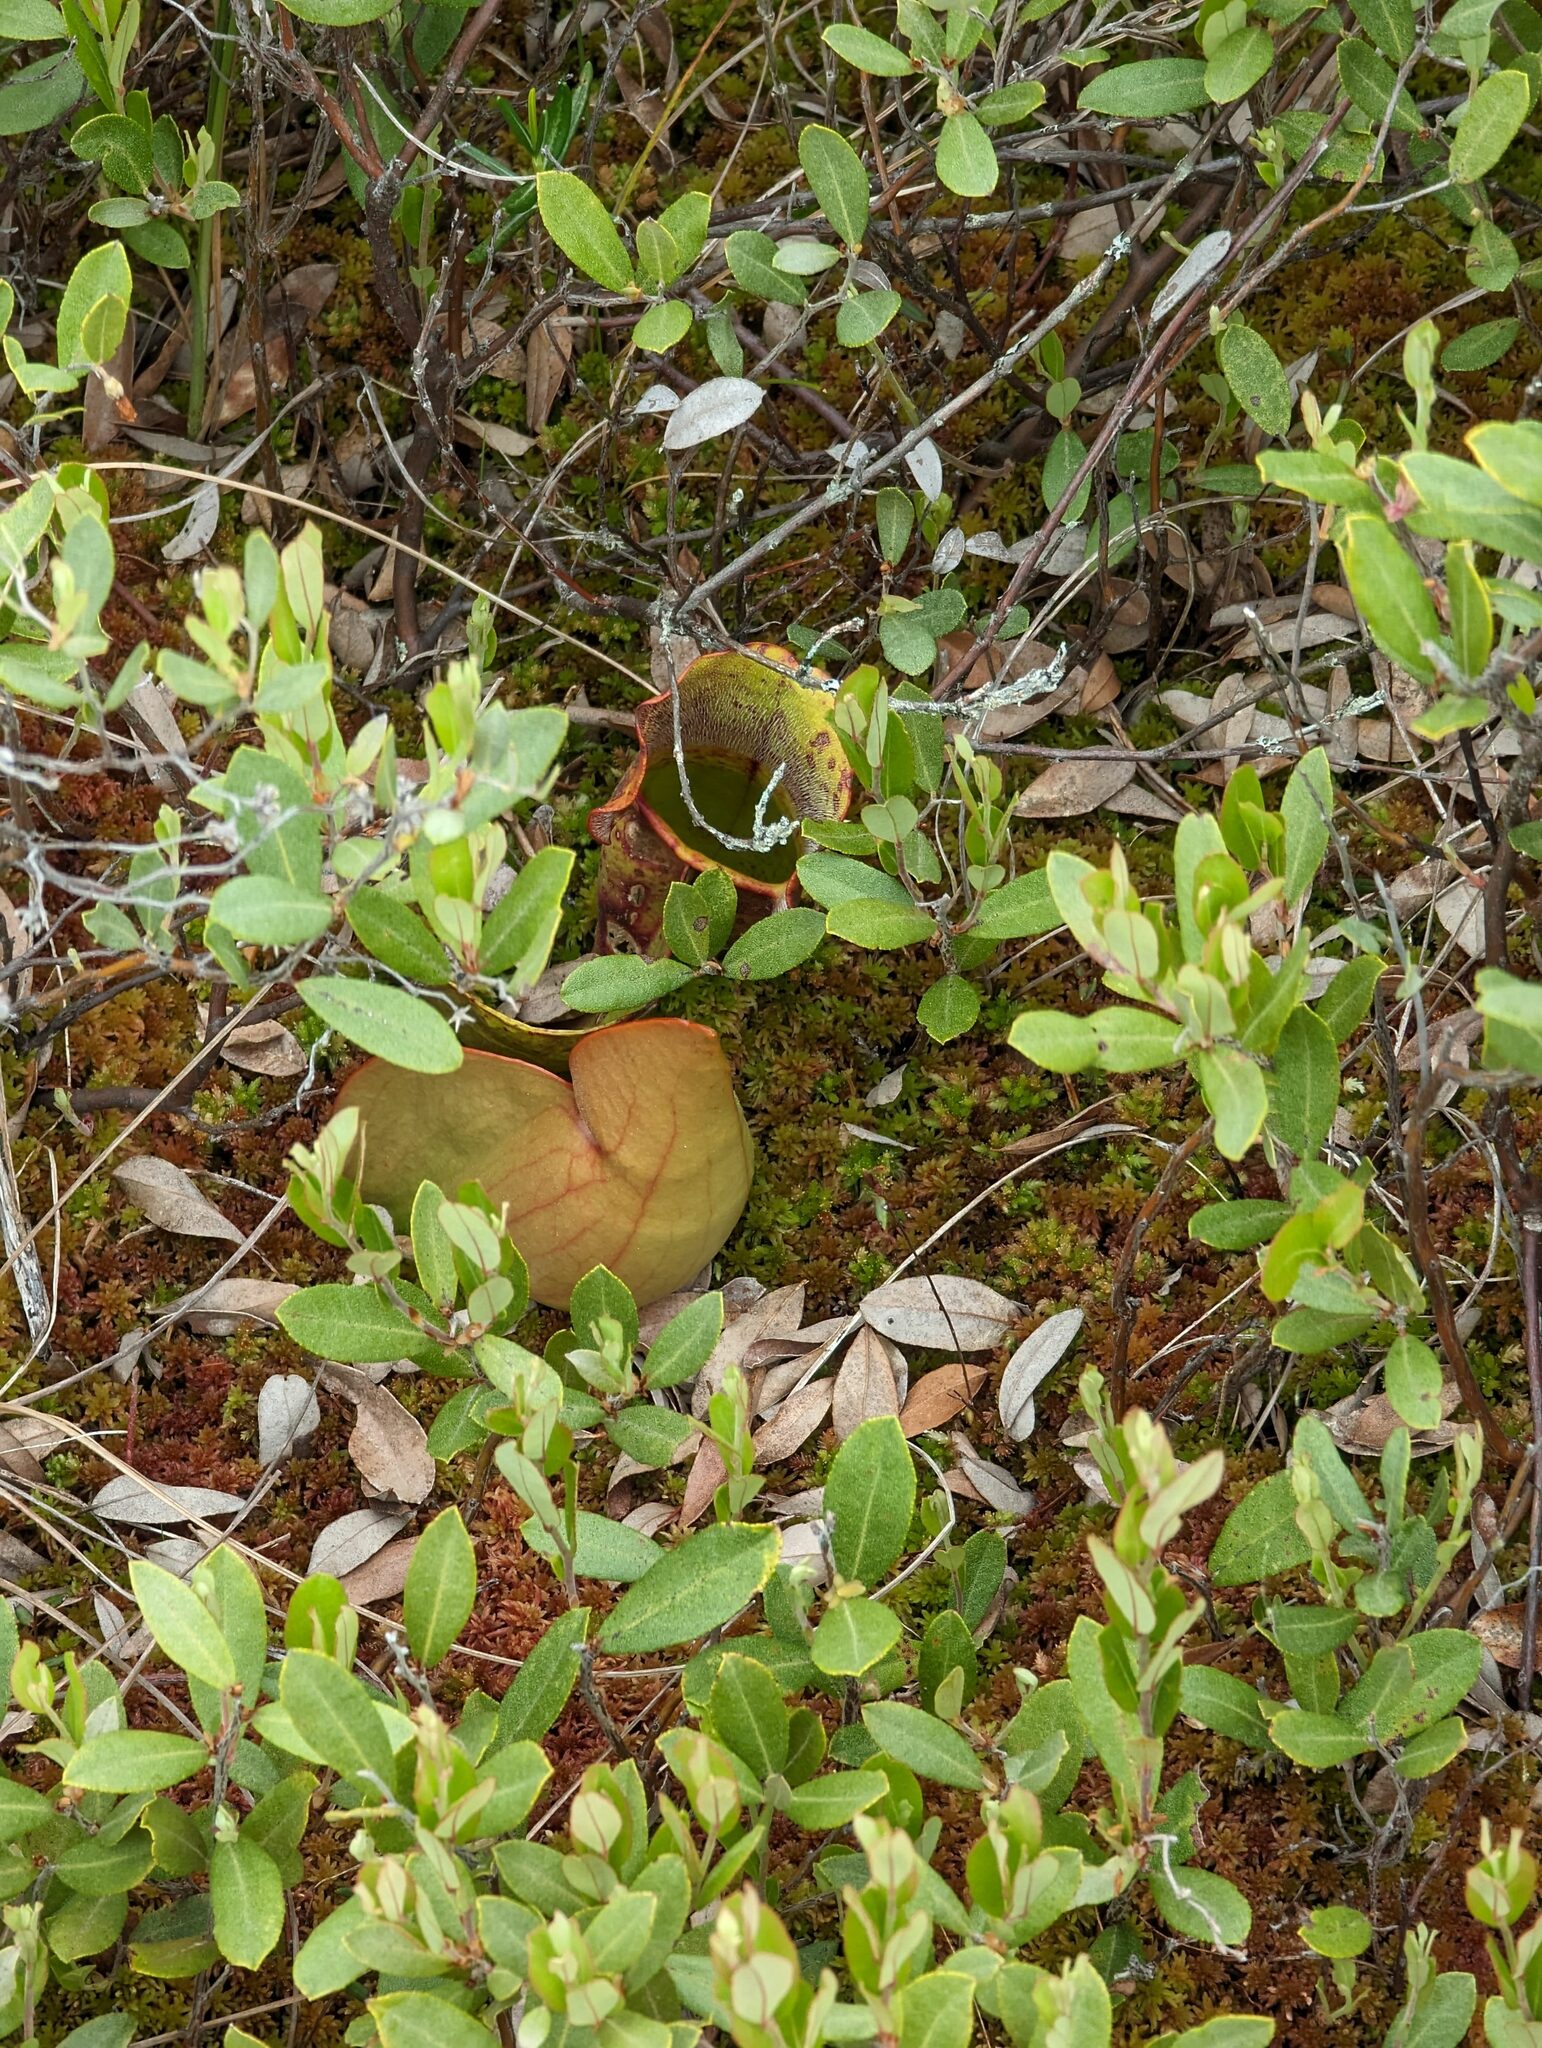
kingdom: Plantae
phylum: Tracheophyta
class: Magnoliopsida
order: Ericales
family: Sarraceniaceae
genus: Sarracenia
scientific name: Sarracenia purpurea
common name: Pitcherplant
